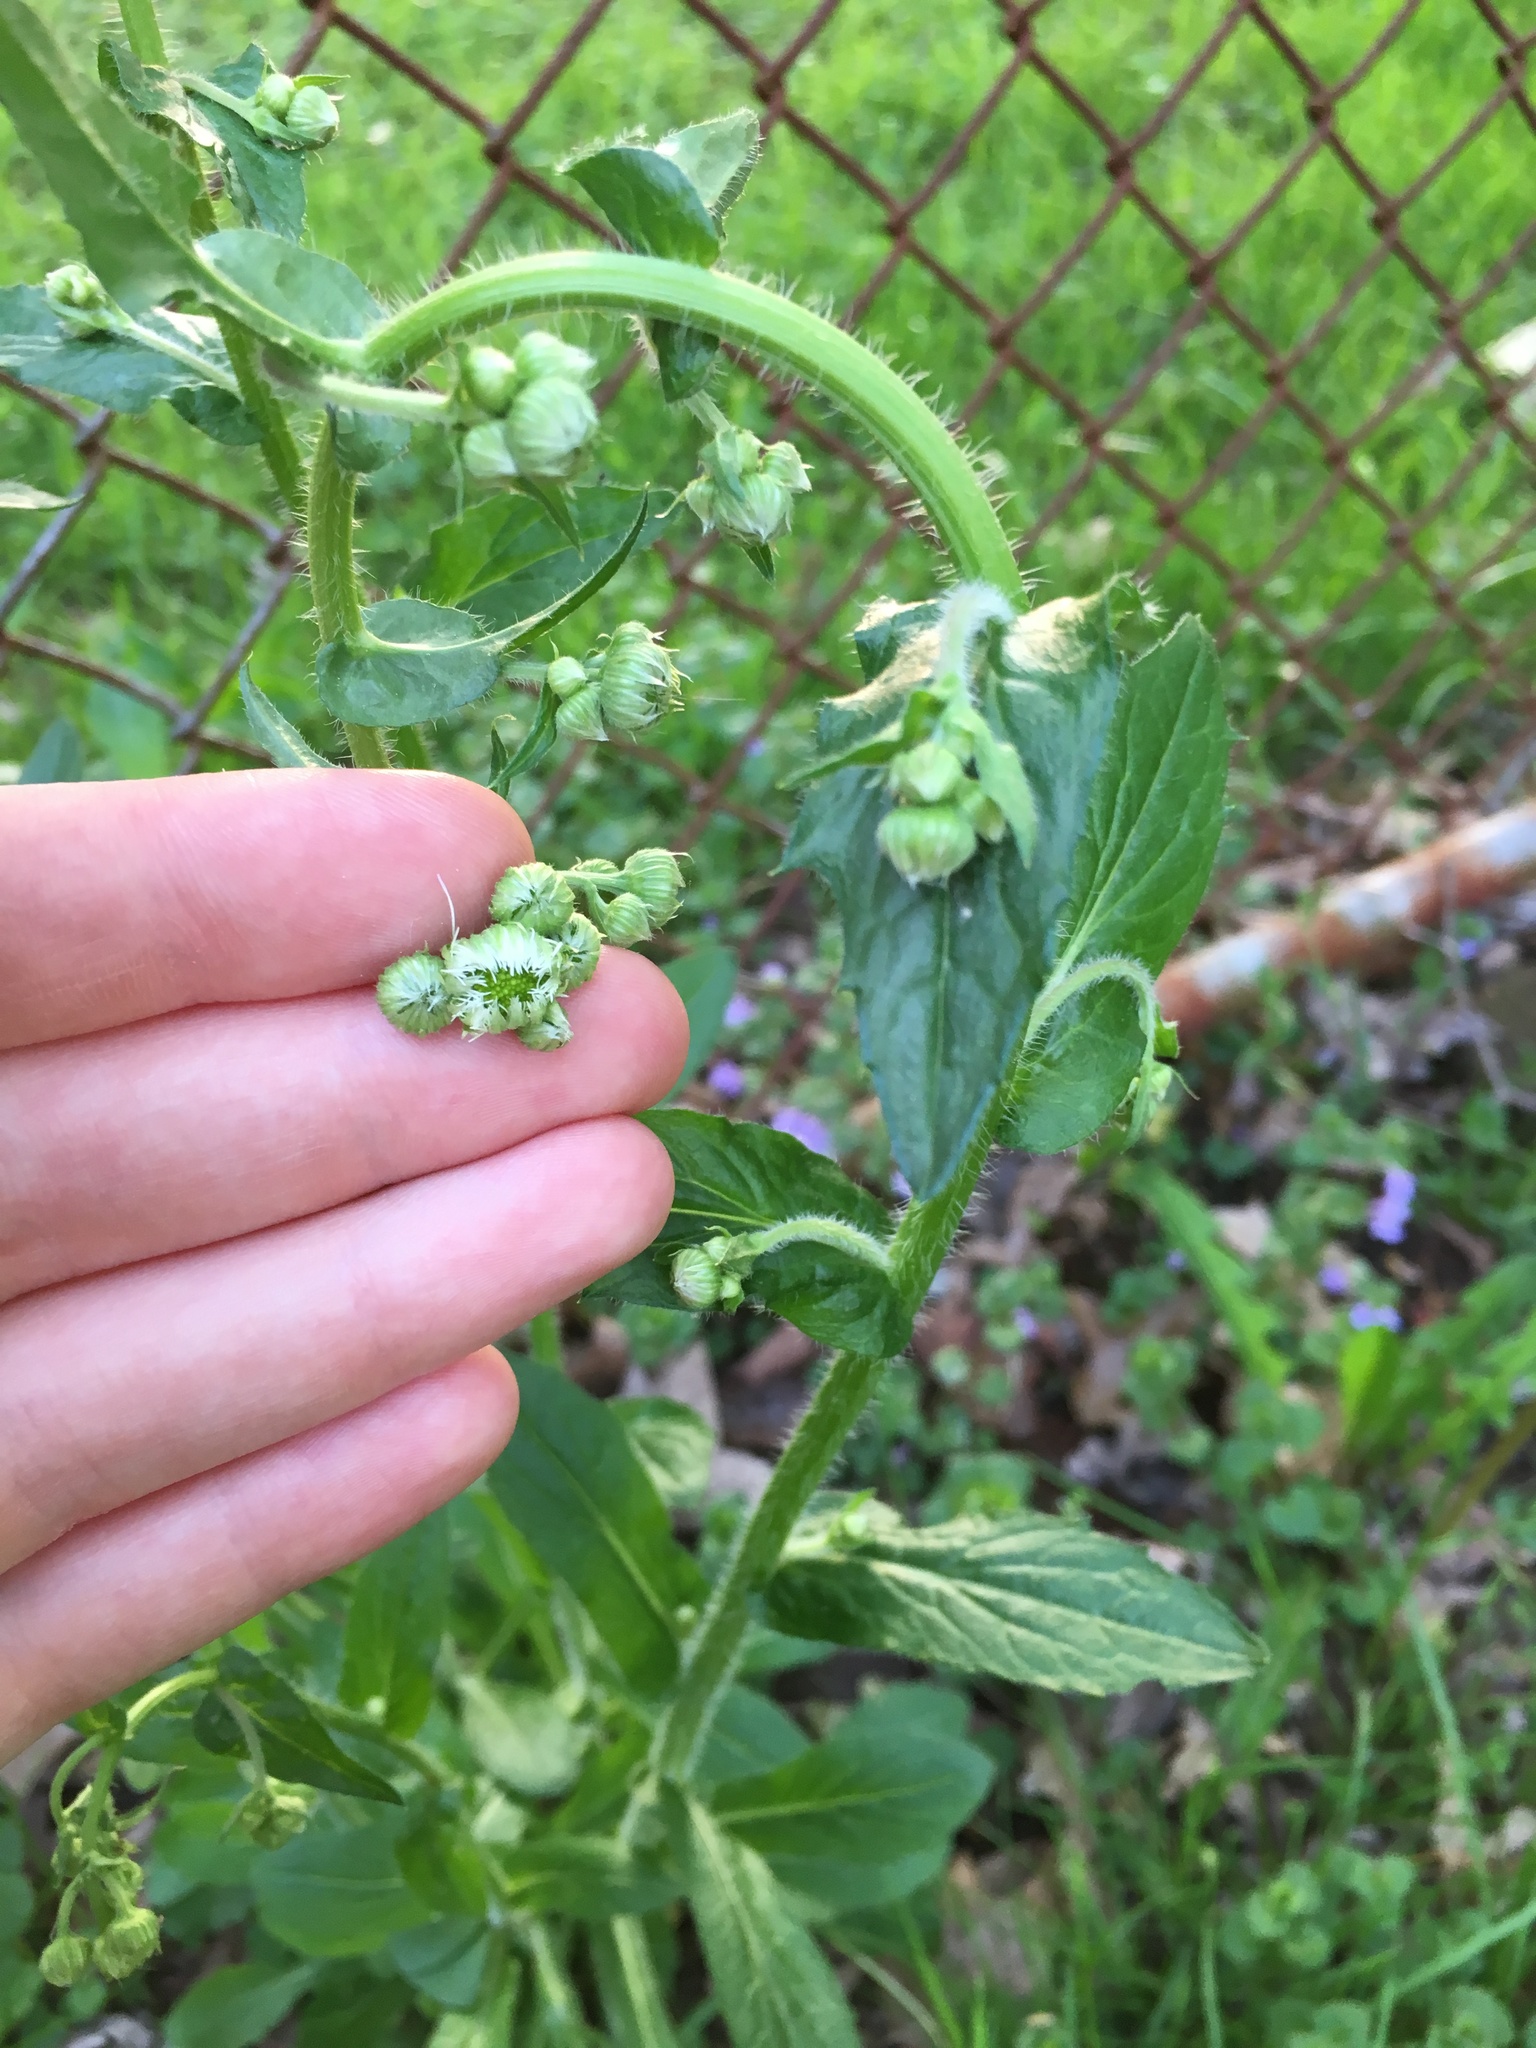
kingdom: Plantae
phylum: Tracheophyta
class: Magnoliopsida
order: Asterales
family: Asteraceae
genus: Erigeron
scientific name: Erigeron philadelphicus
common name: Robin's-plantain
